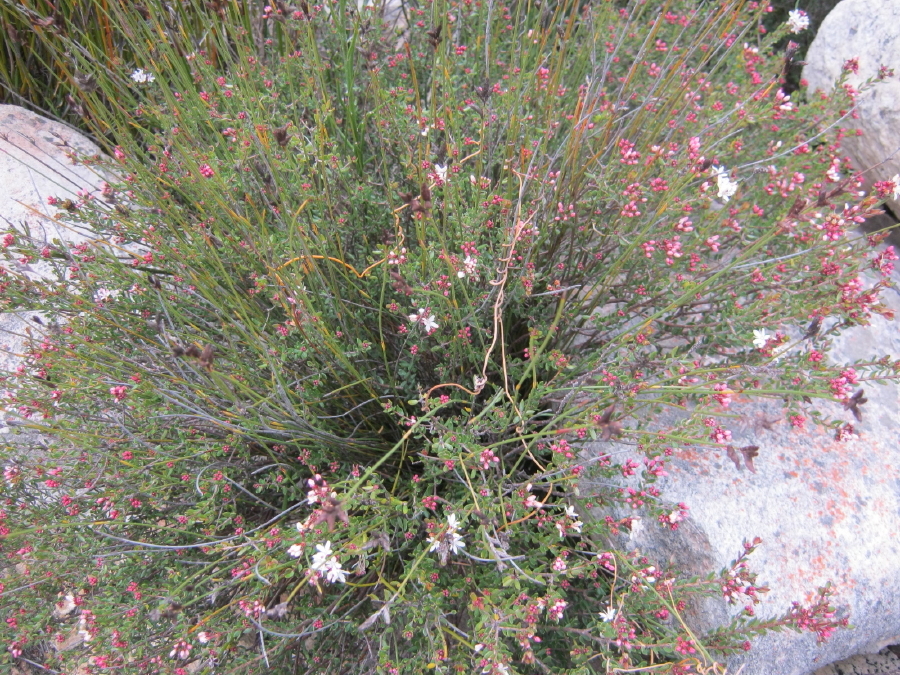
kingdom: Plantae
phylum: Tracheophyta
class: Magnoliopsida
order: Sapindales
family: Rutaceae
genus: Agathosma
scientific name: Agathosma mundtii
